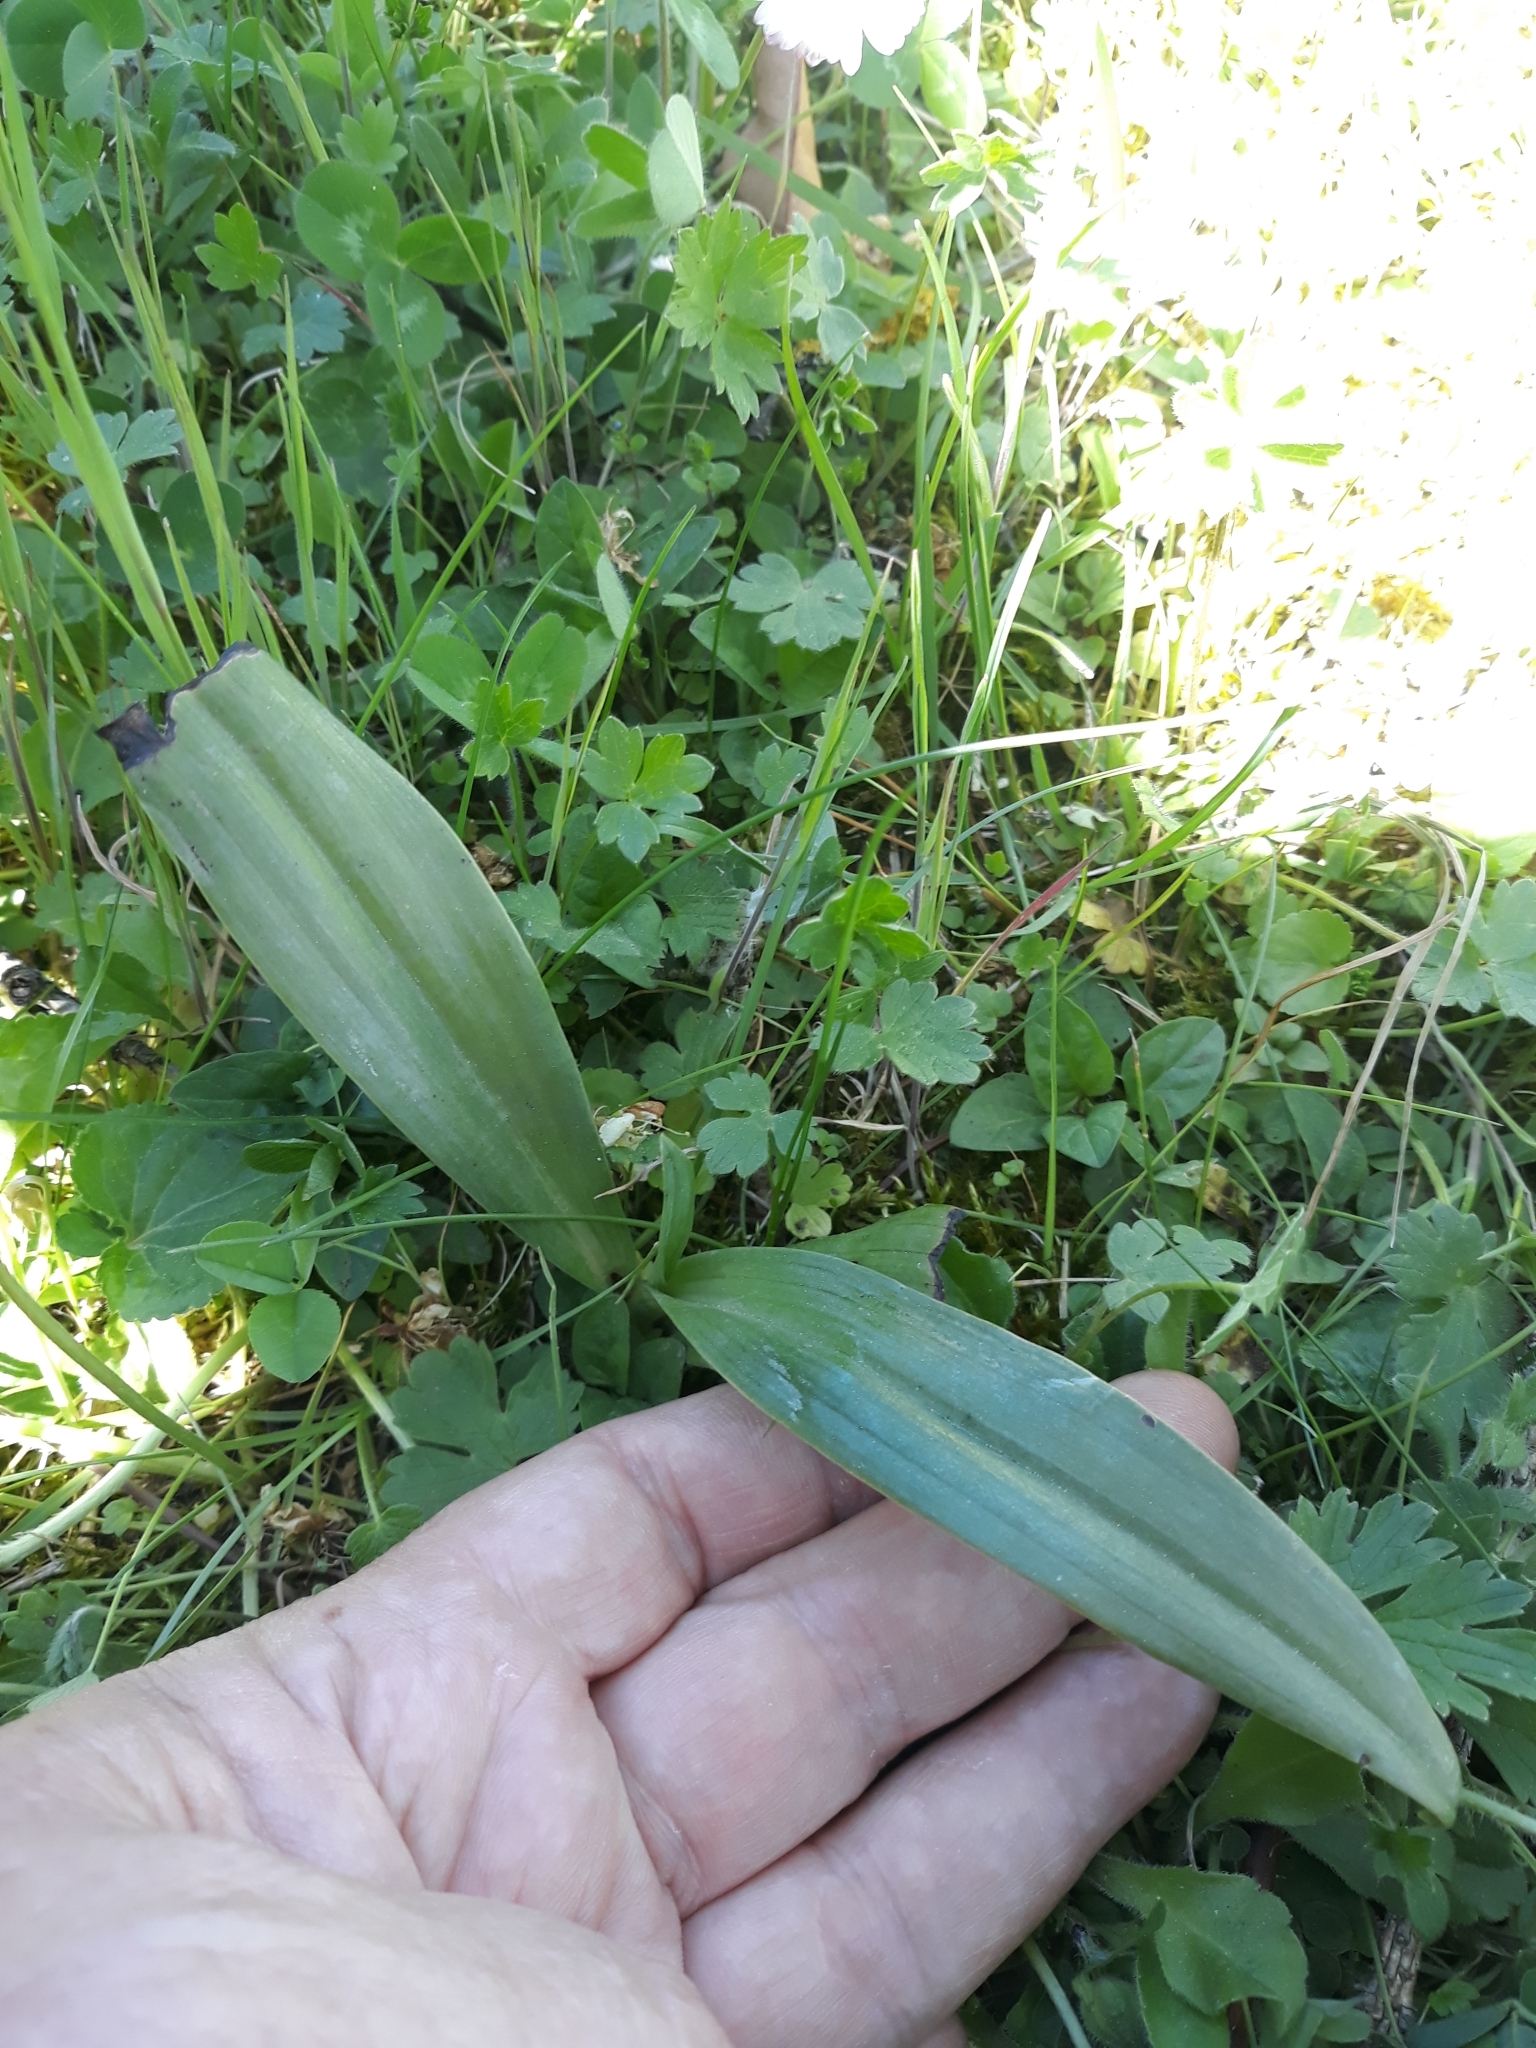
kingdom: Plantae
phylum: Tracheophyta
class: Liliopsida
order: Asparagales
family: Orchidaceae
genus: Himantoglossum
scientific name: Himantoglossum hircinum
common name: Lizard orchid
